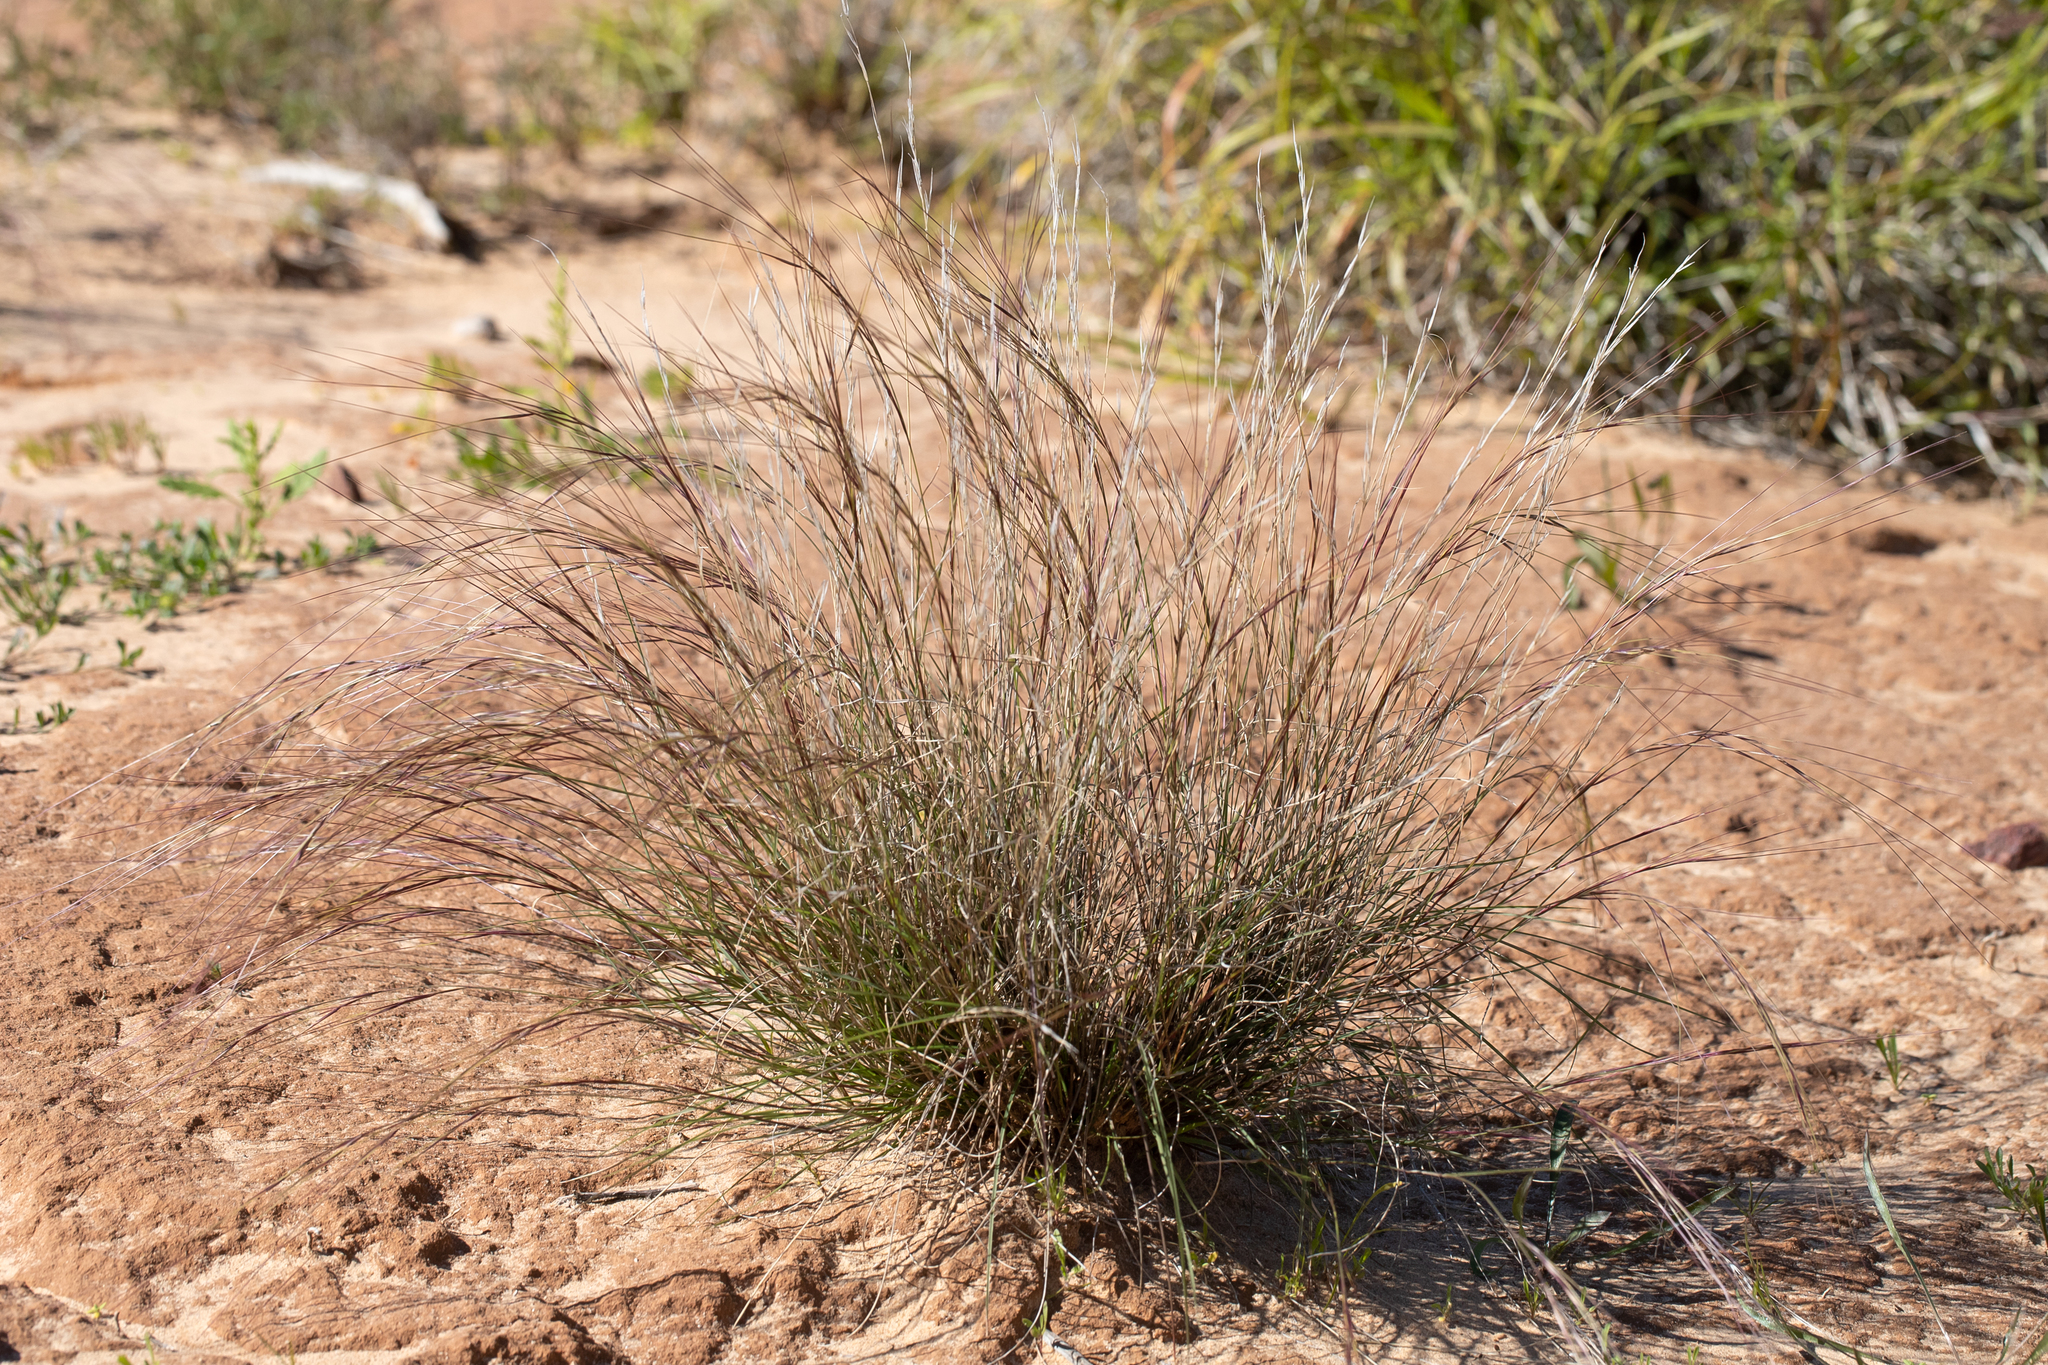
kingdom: Plantae
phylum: Tracheophyta
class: Liliopsida
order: Poales
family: Poaceae
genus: Aristida
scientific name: Aristida contorta
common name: Bunch kerosene grass
